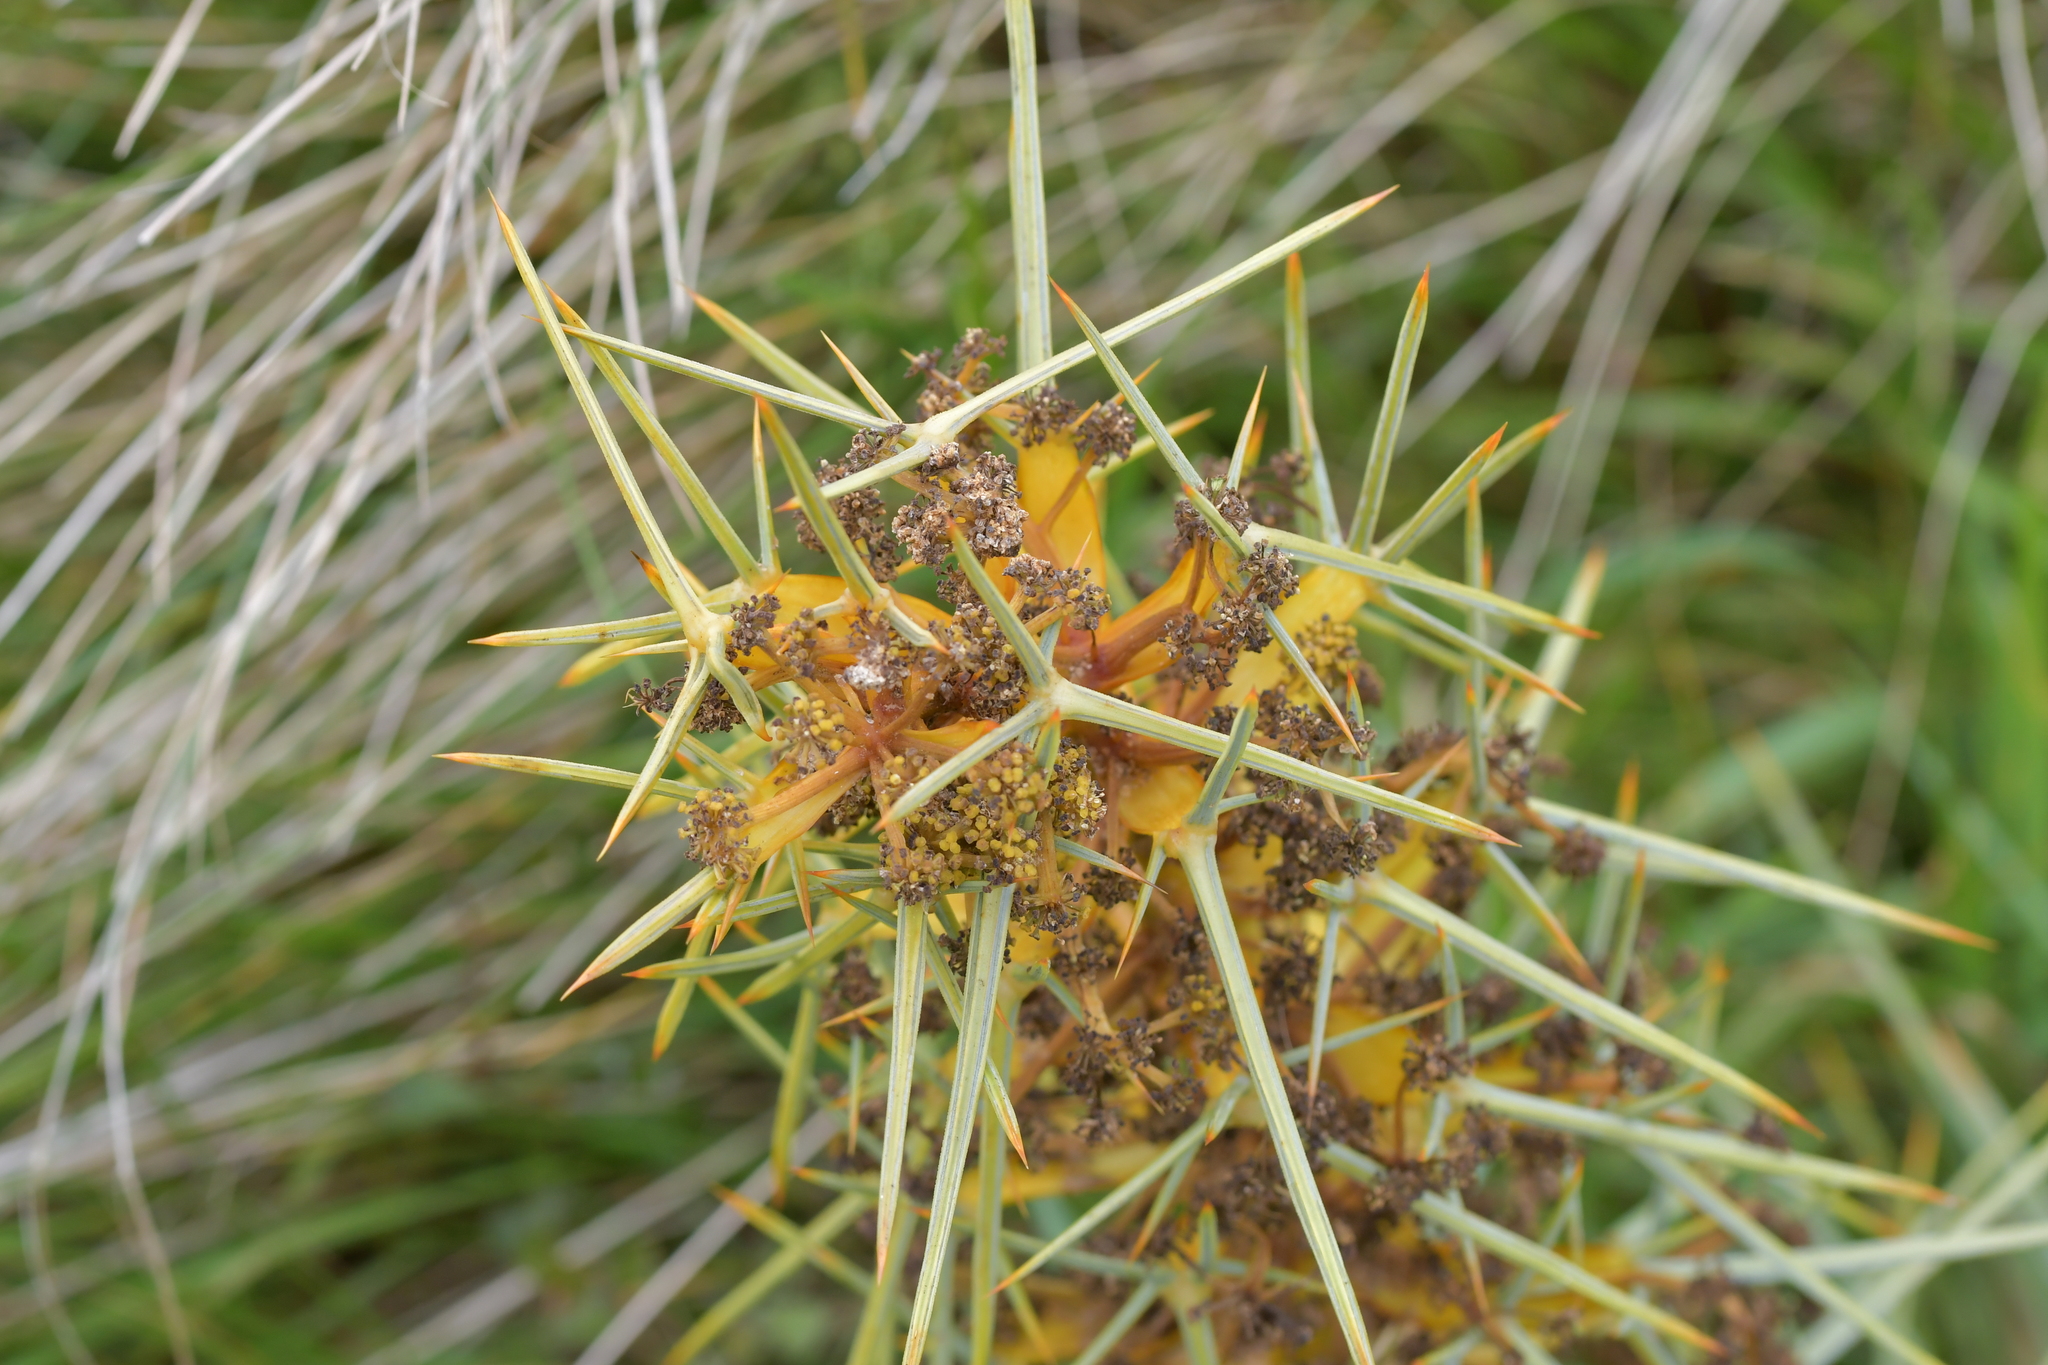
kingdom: Plantae
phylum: Tracheophyta
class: Magnoliopsida
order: Apiales
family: Apiaceae
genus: Aciphylla
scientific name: Aciphylla squarrosa
